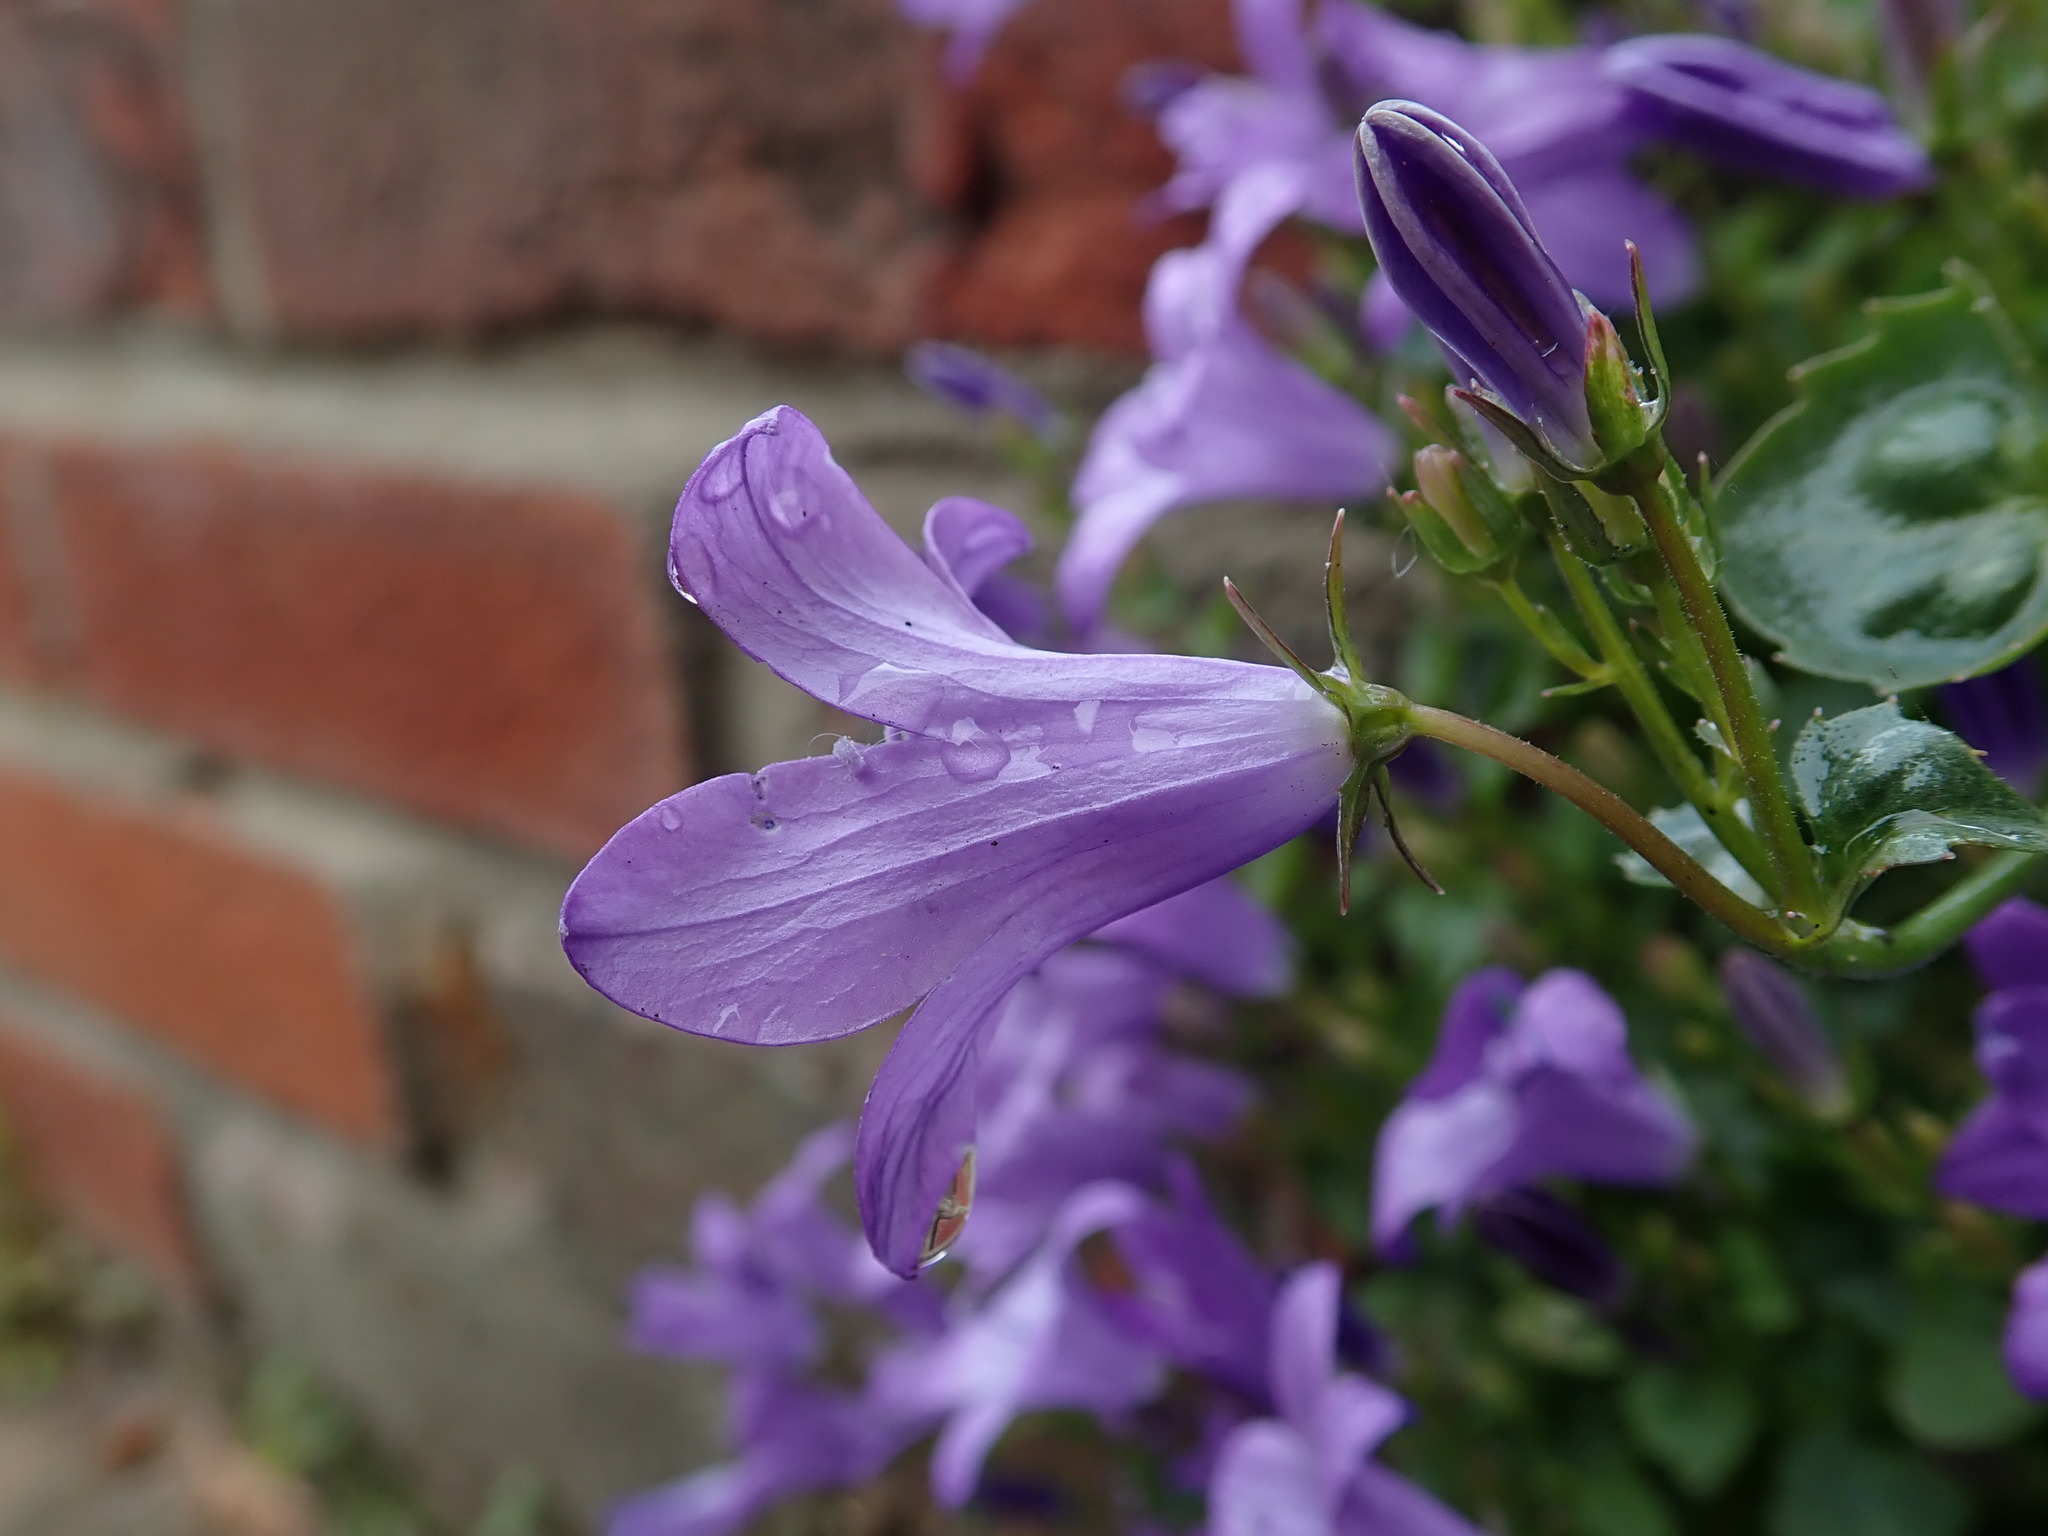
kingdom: Plantae
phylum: Tracheophyta
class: Magnoliopsida
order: Asterales
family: Campanulaceae
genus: Campanula
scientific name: Campanula portenschlagiana
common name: Adria bellflower
